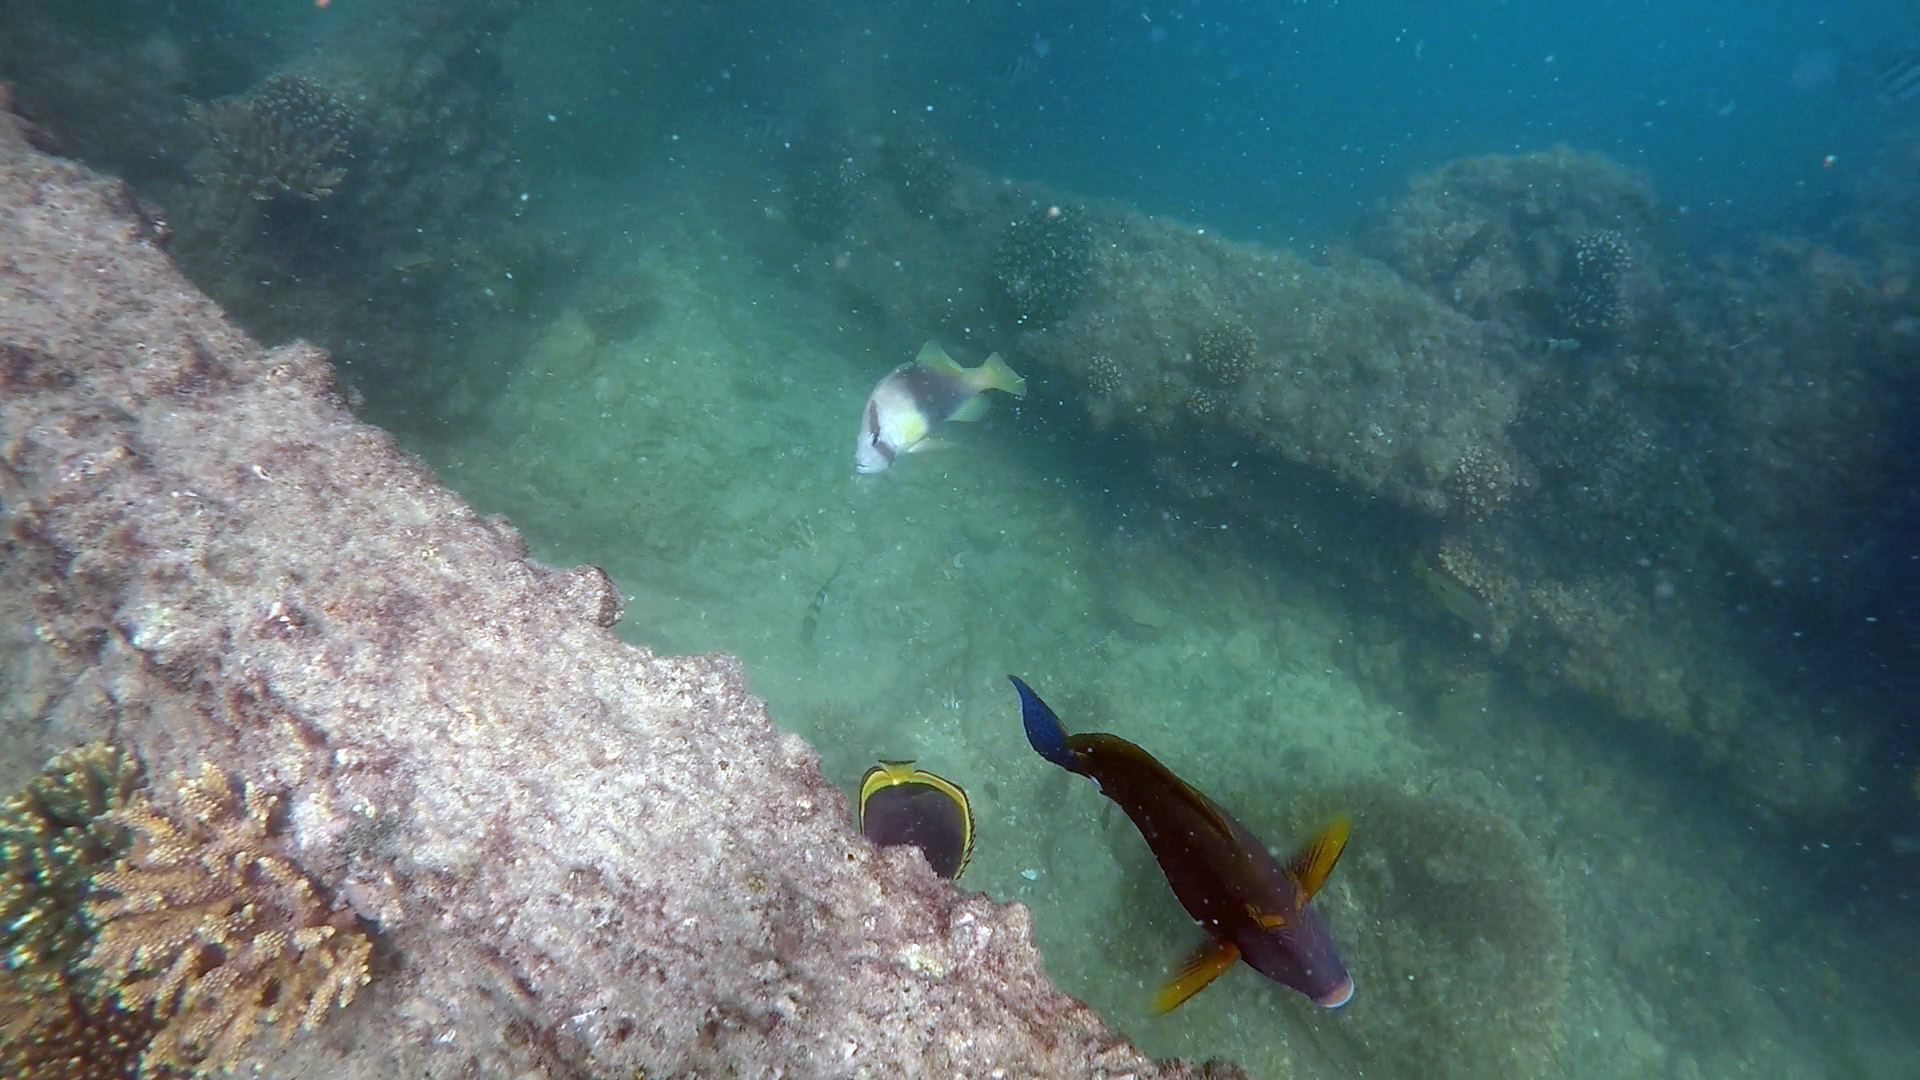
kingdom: Animalia
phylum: Chordata
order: Perciformes
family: Serranidae
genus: Diploprion
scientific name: Diploprion bifasciatum
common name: Barred soapfish
